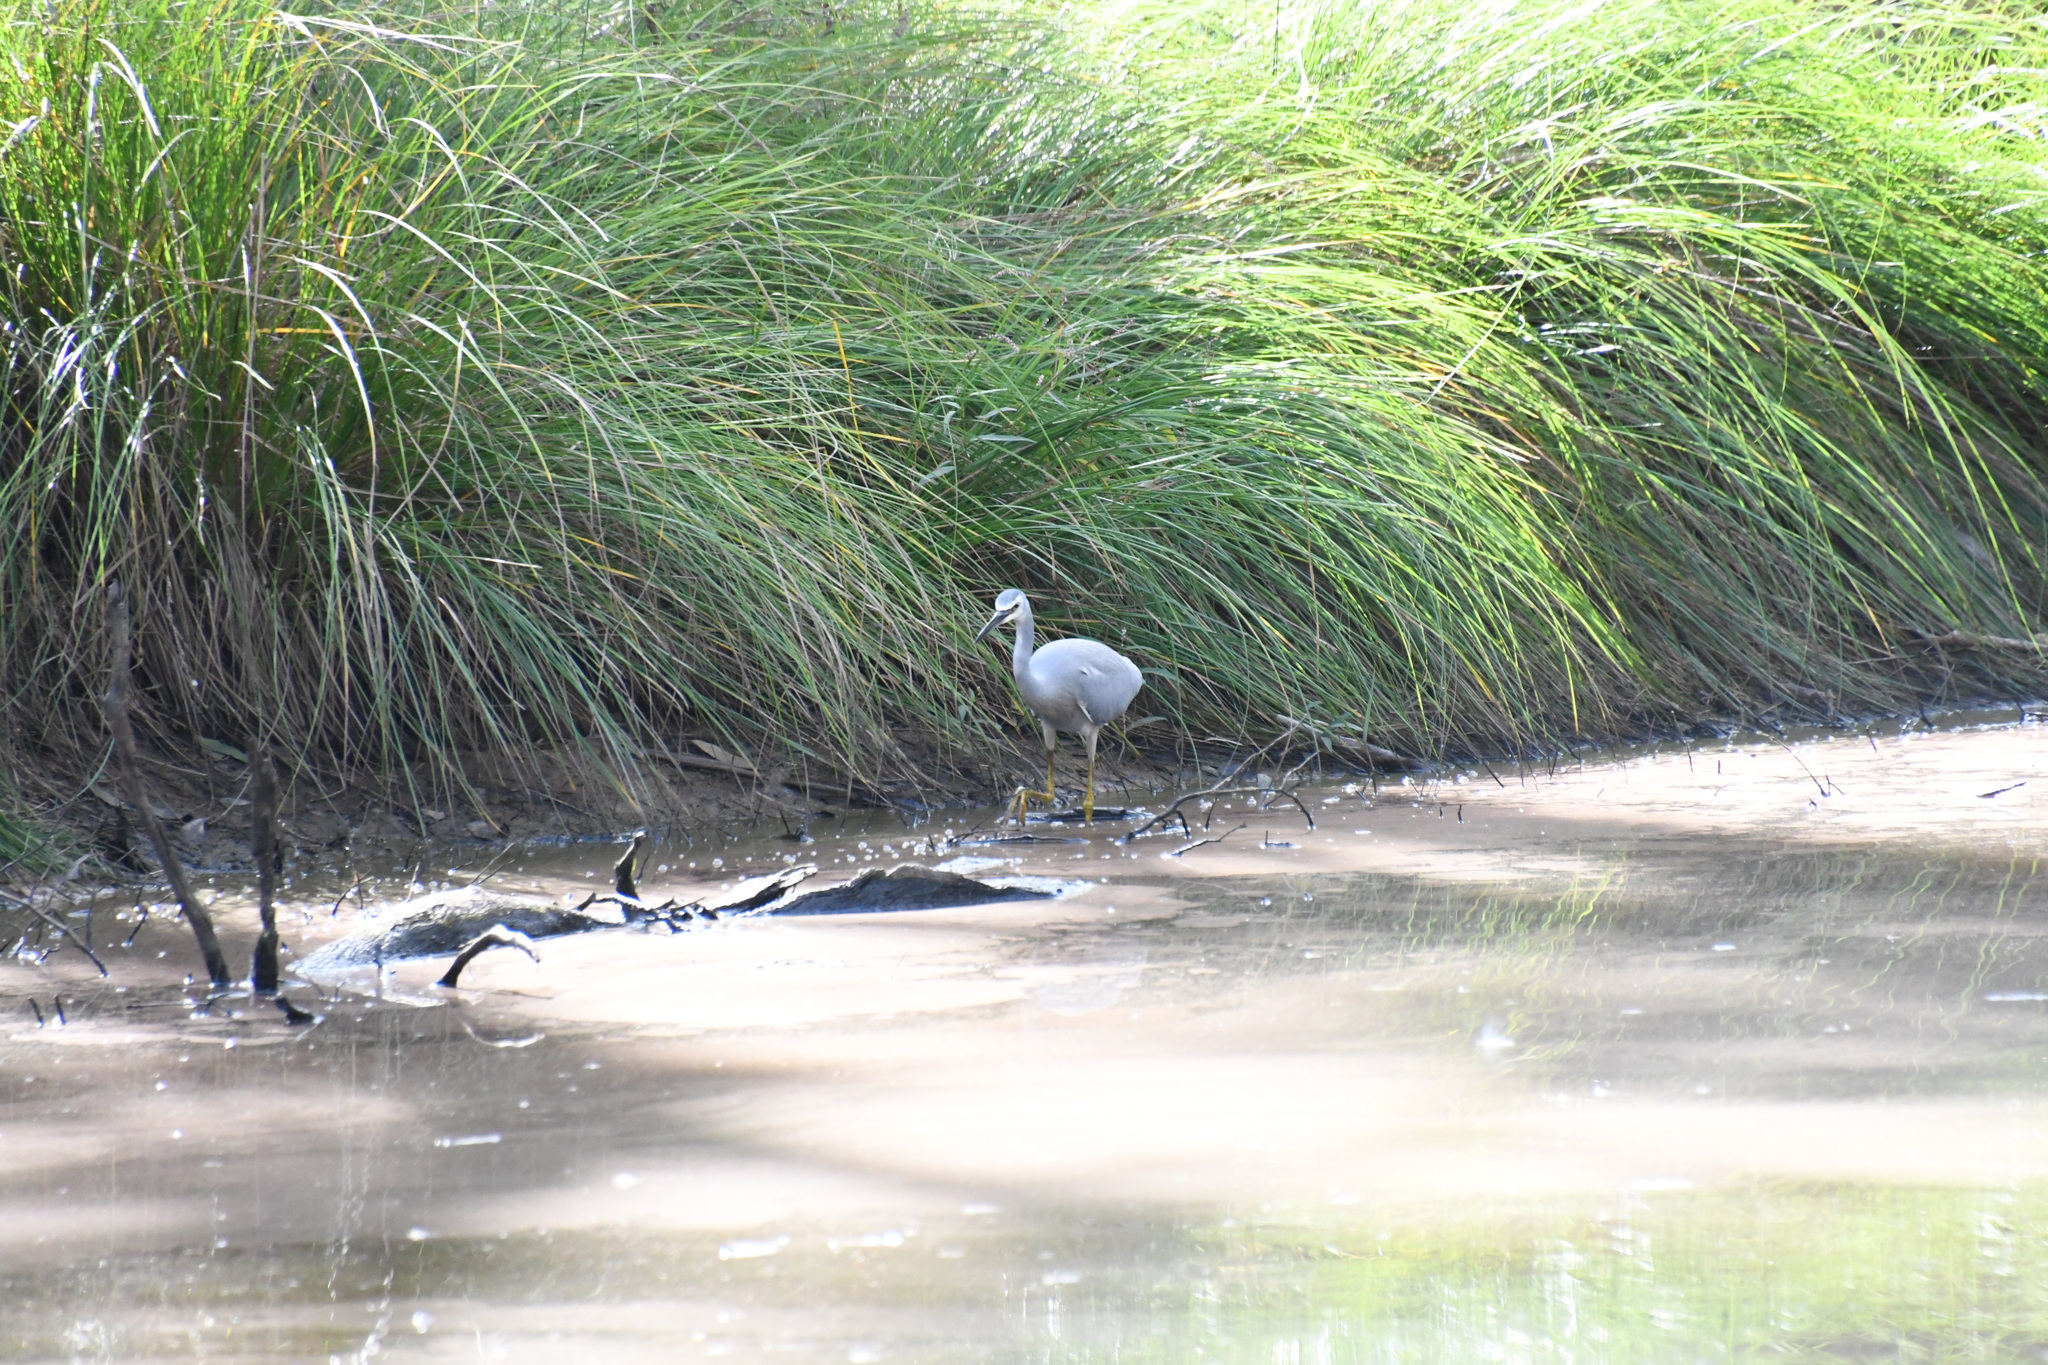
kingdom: Animalia
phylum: Chordata
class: Aves
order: Pelecaniformes
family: Ardeidae
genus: Egretta
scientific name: Egretta novaehollandiae
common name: White-faced heron
